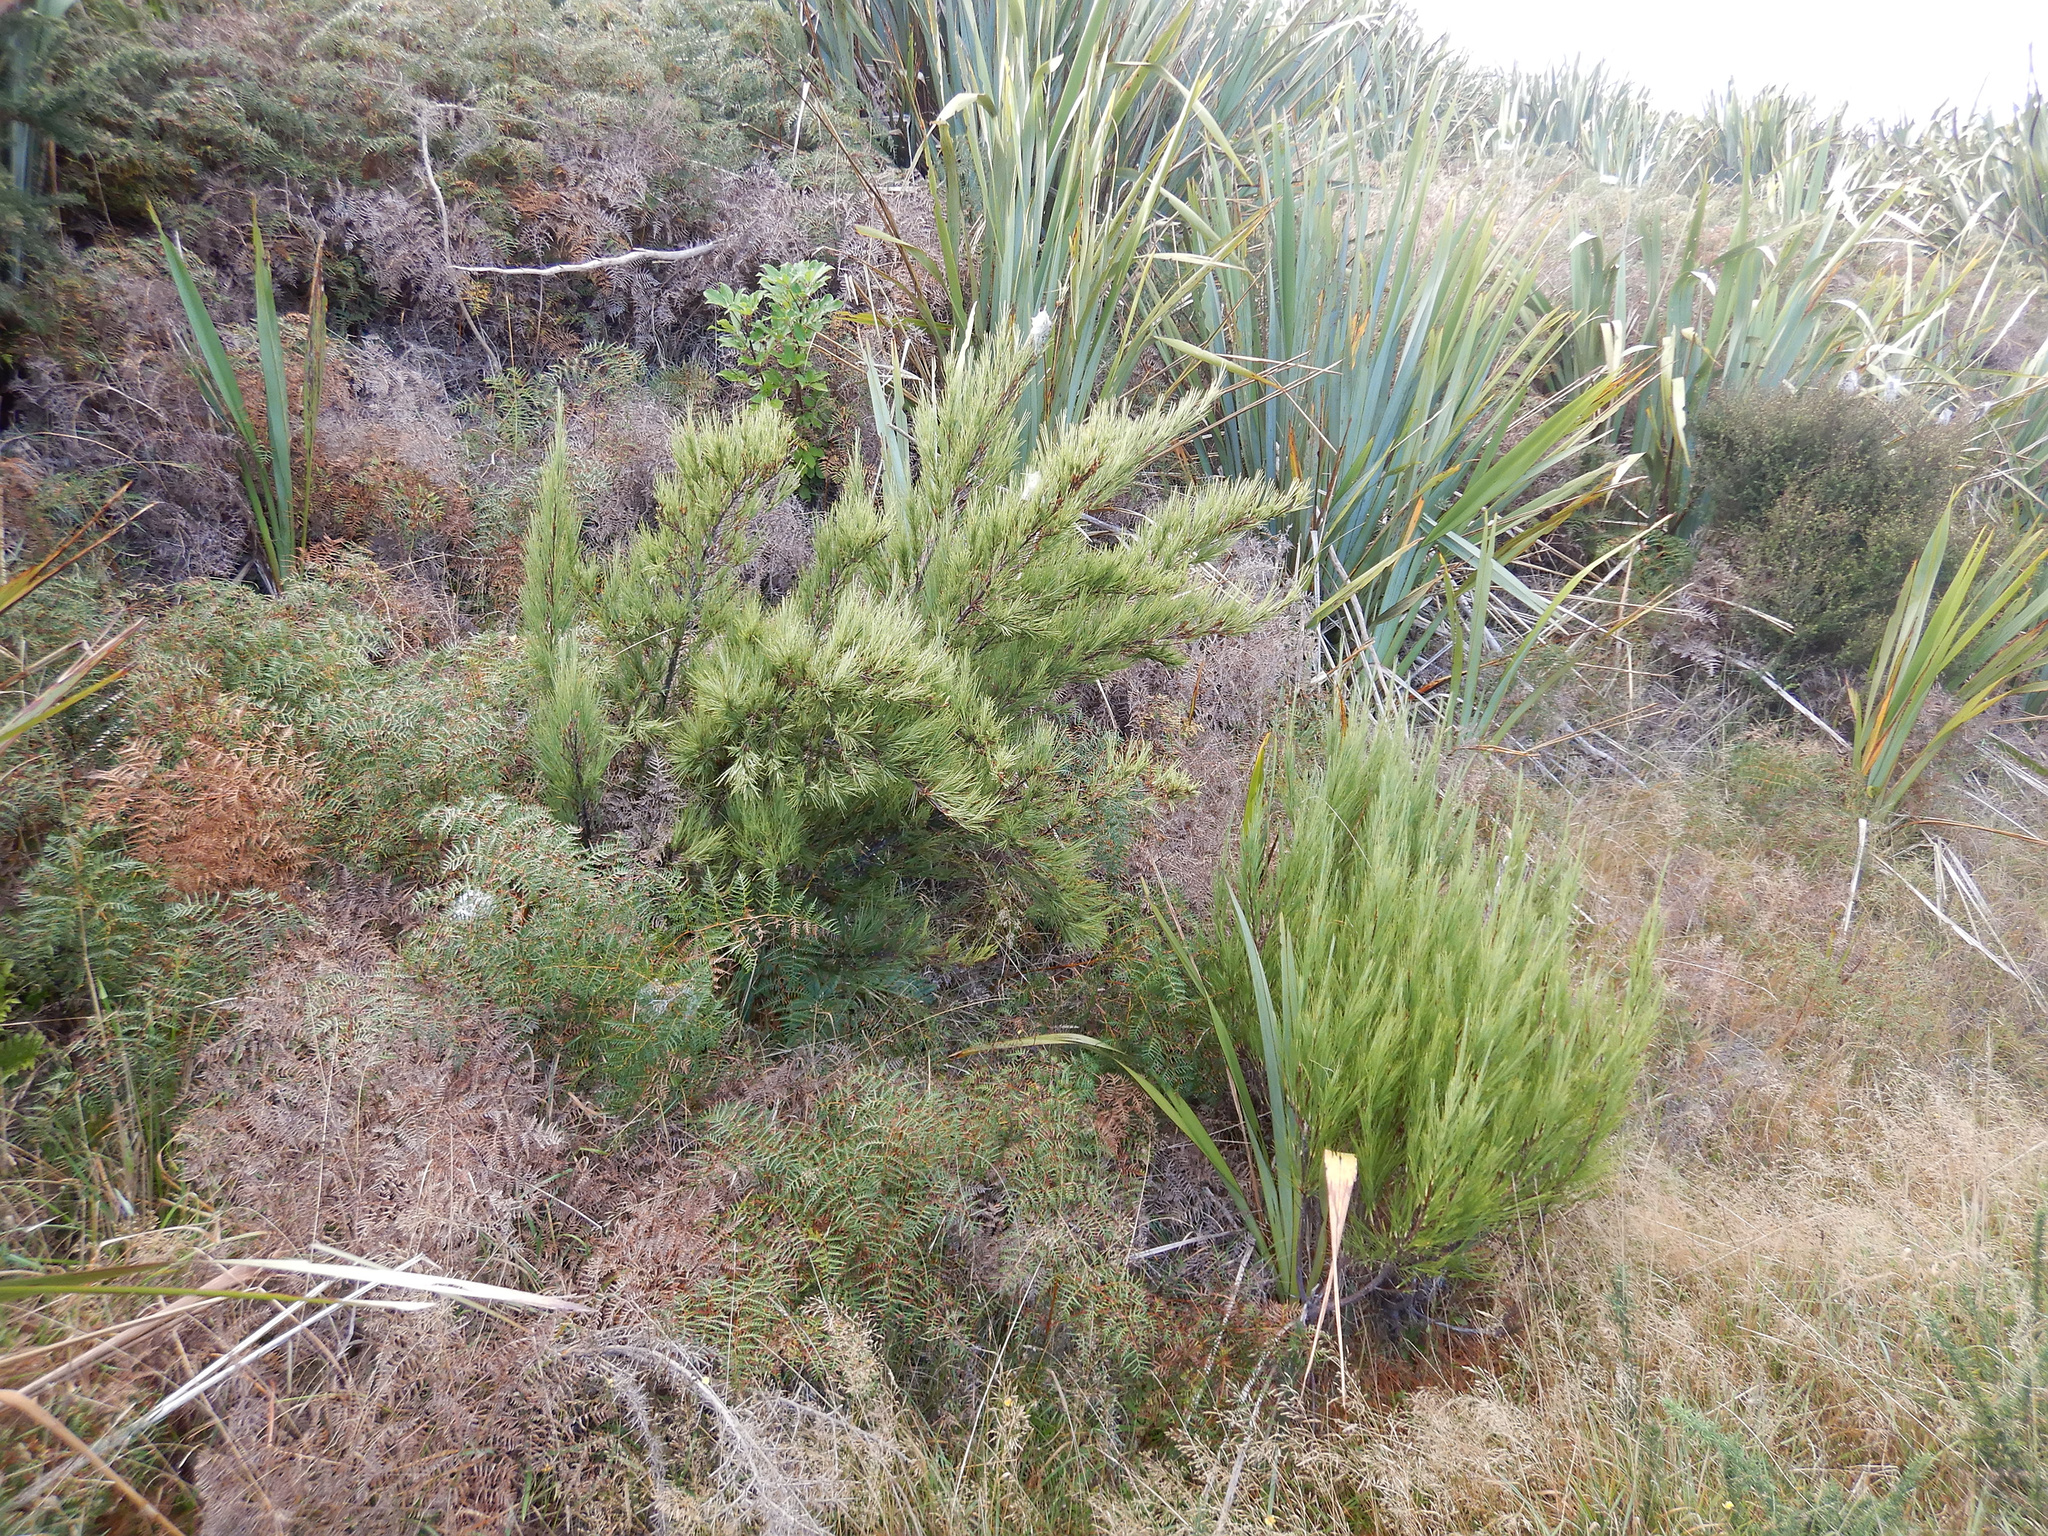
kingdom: Plantae
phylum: Tracheophyta
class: Magnoliopsida
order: Ericales
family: Ericaceae
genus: Dracophyllum
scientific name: Dracophyllum acerosum
